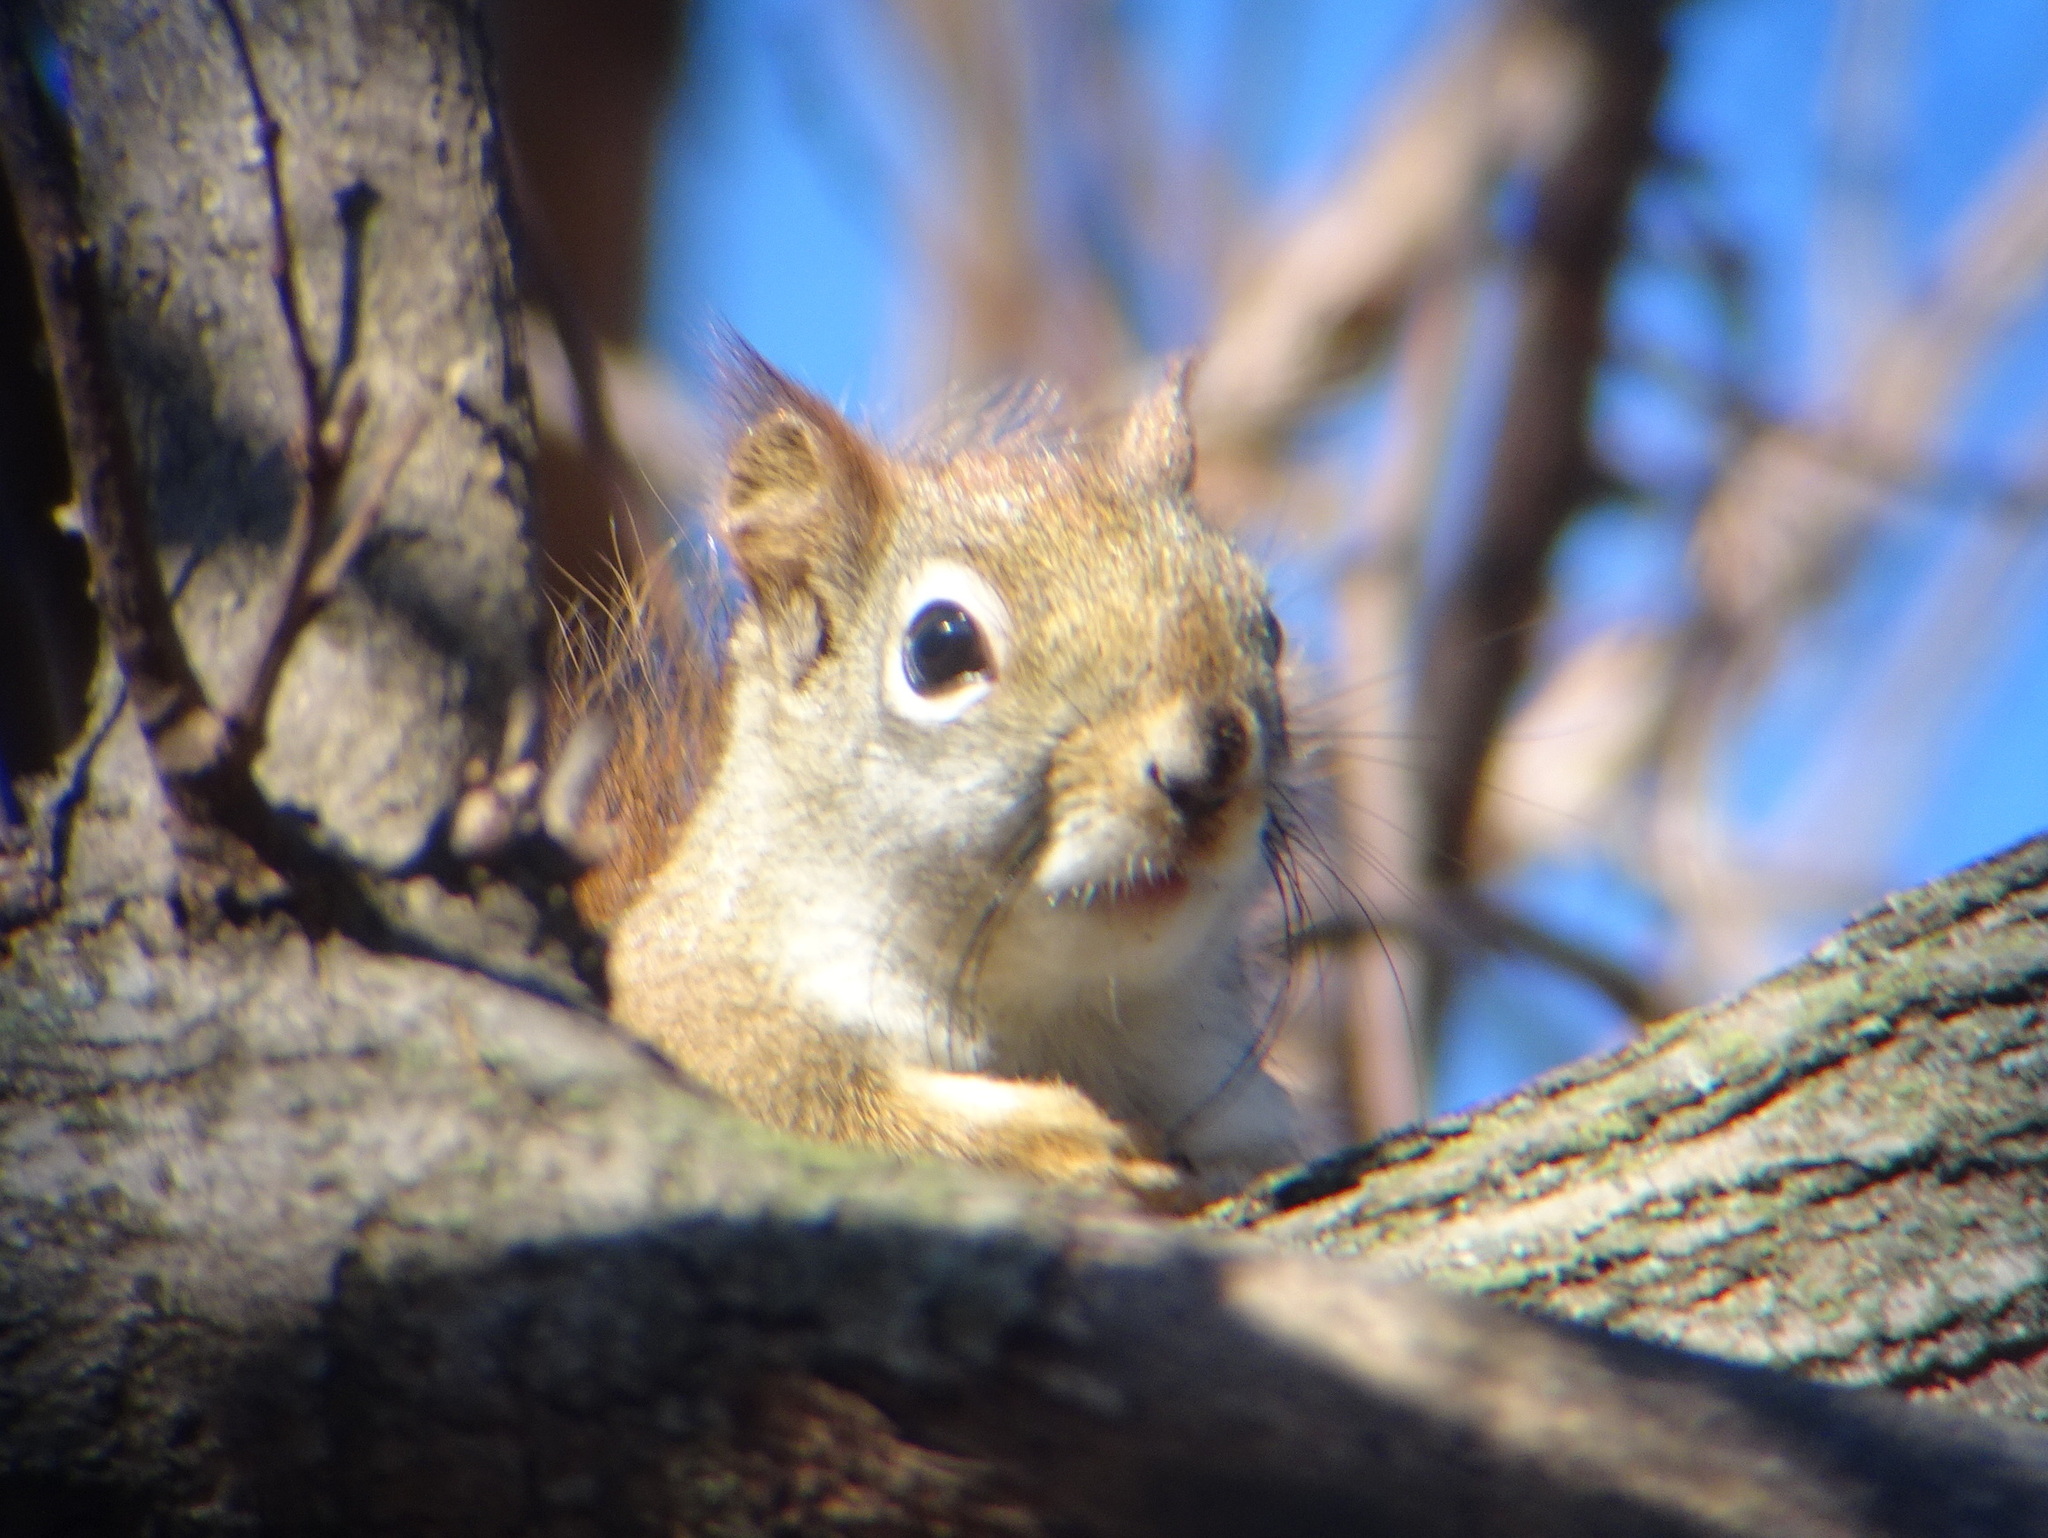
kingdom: Animalia
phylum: Chordata
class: Mammalia
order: Rodentia
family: Sciuridae
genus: Tamiasciurus
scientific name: Tamiasciurus hudsonicus
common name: Red squirrel
